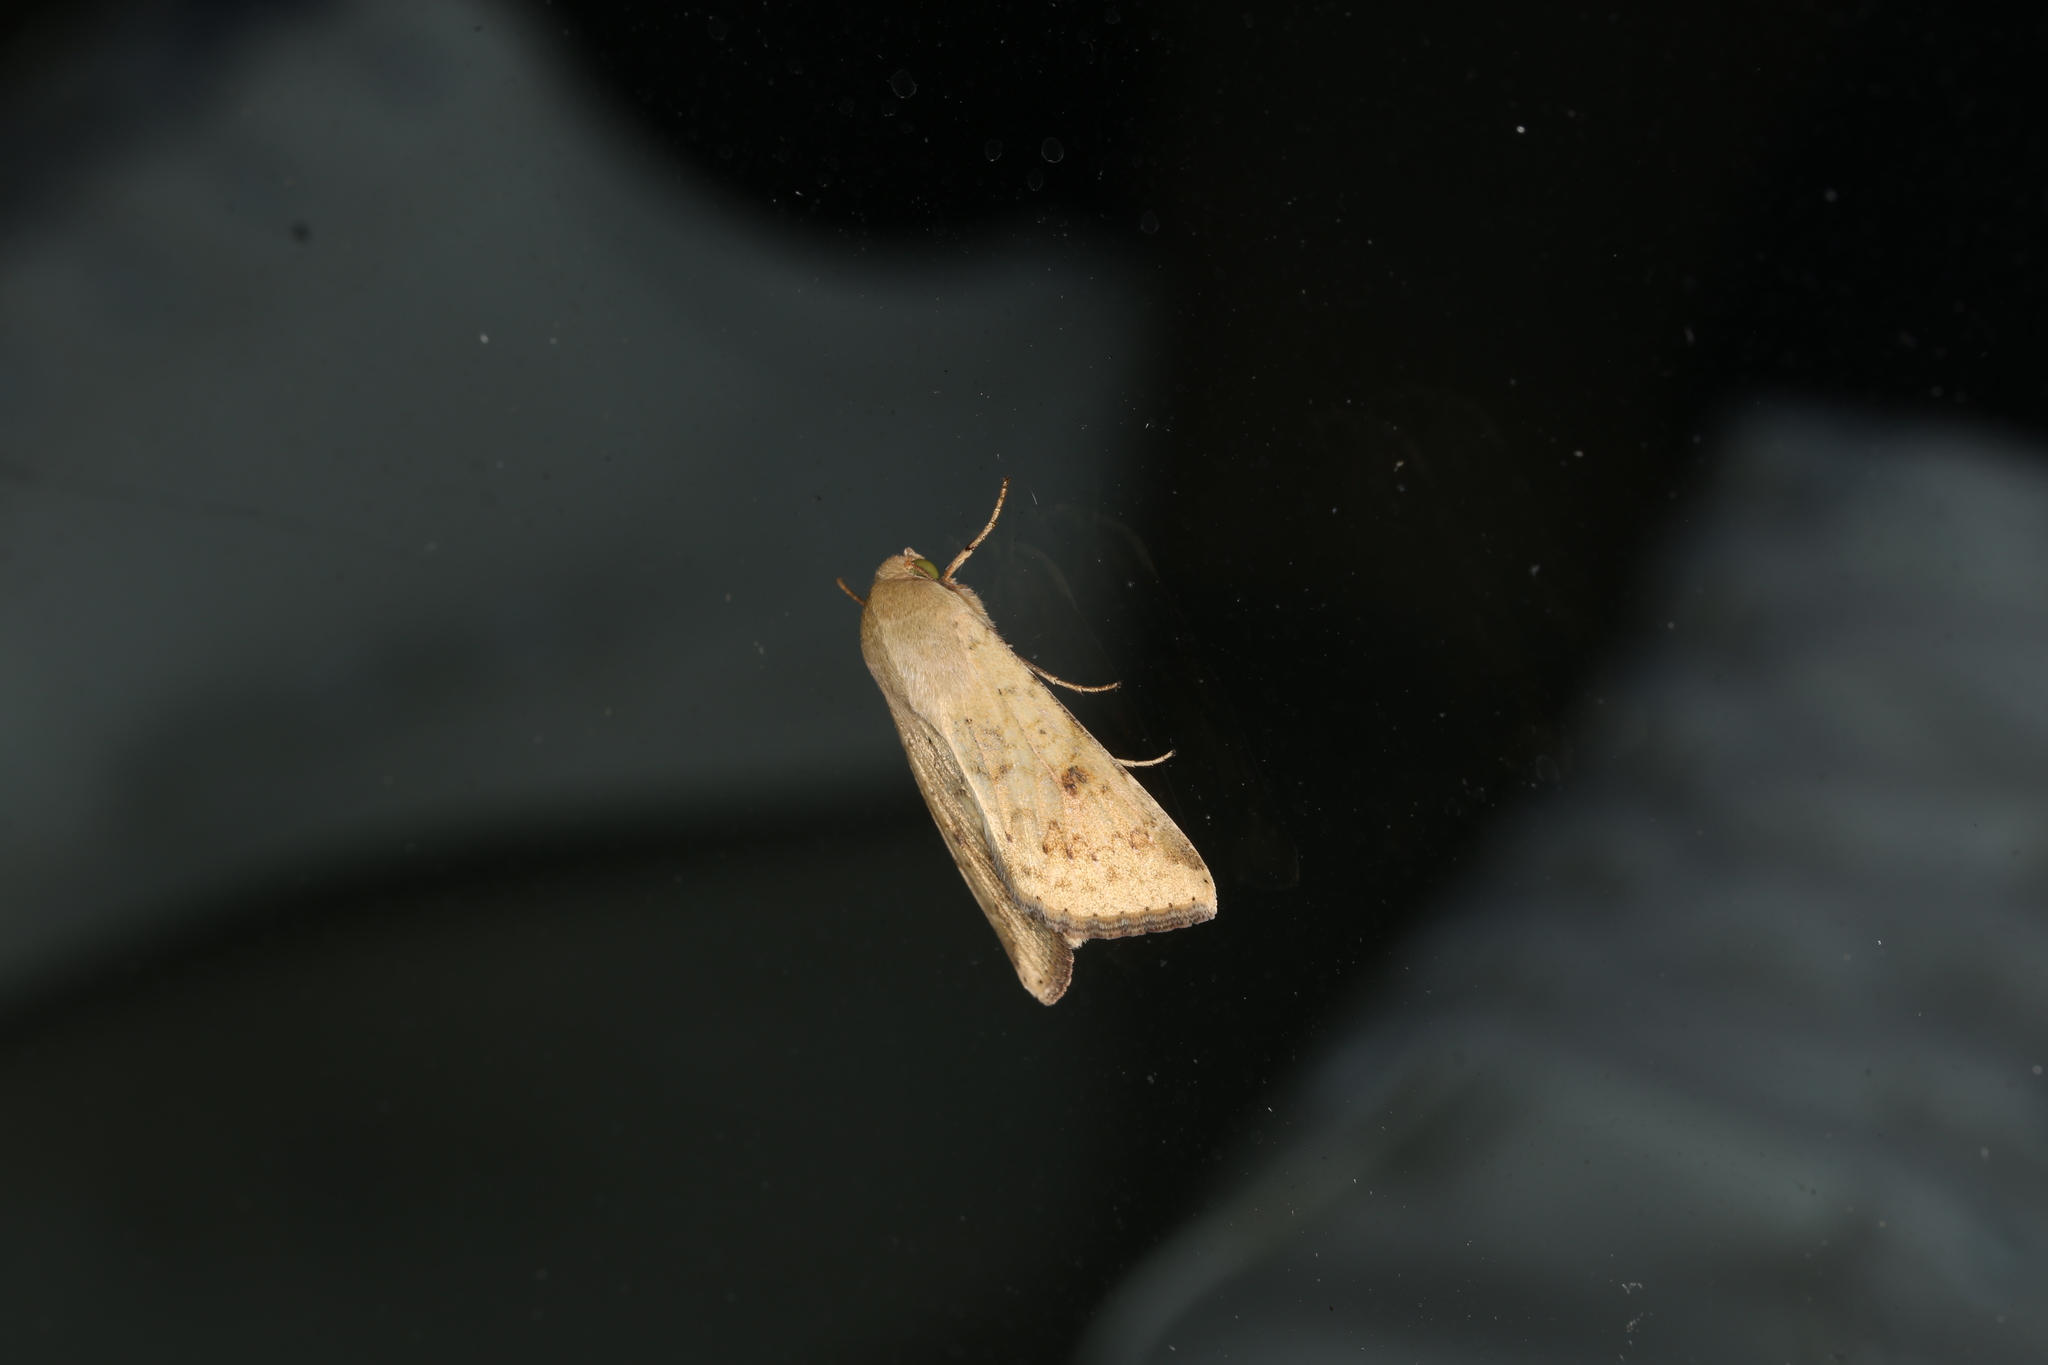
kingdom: Animalia
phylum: Arthropoda
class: Insecta
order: Lepidoptera
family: Noctuidae
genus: Helicoverpa
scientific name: Helicoverpa zea
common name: Bollworm
